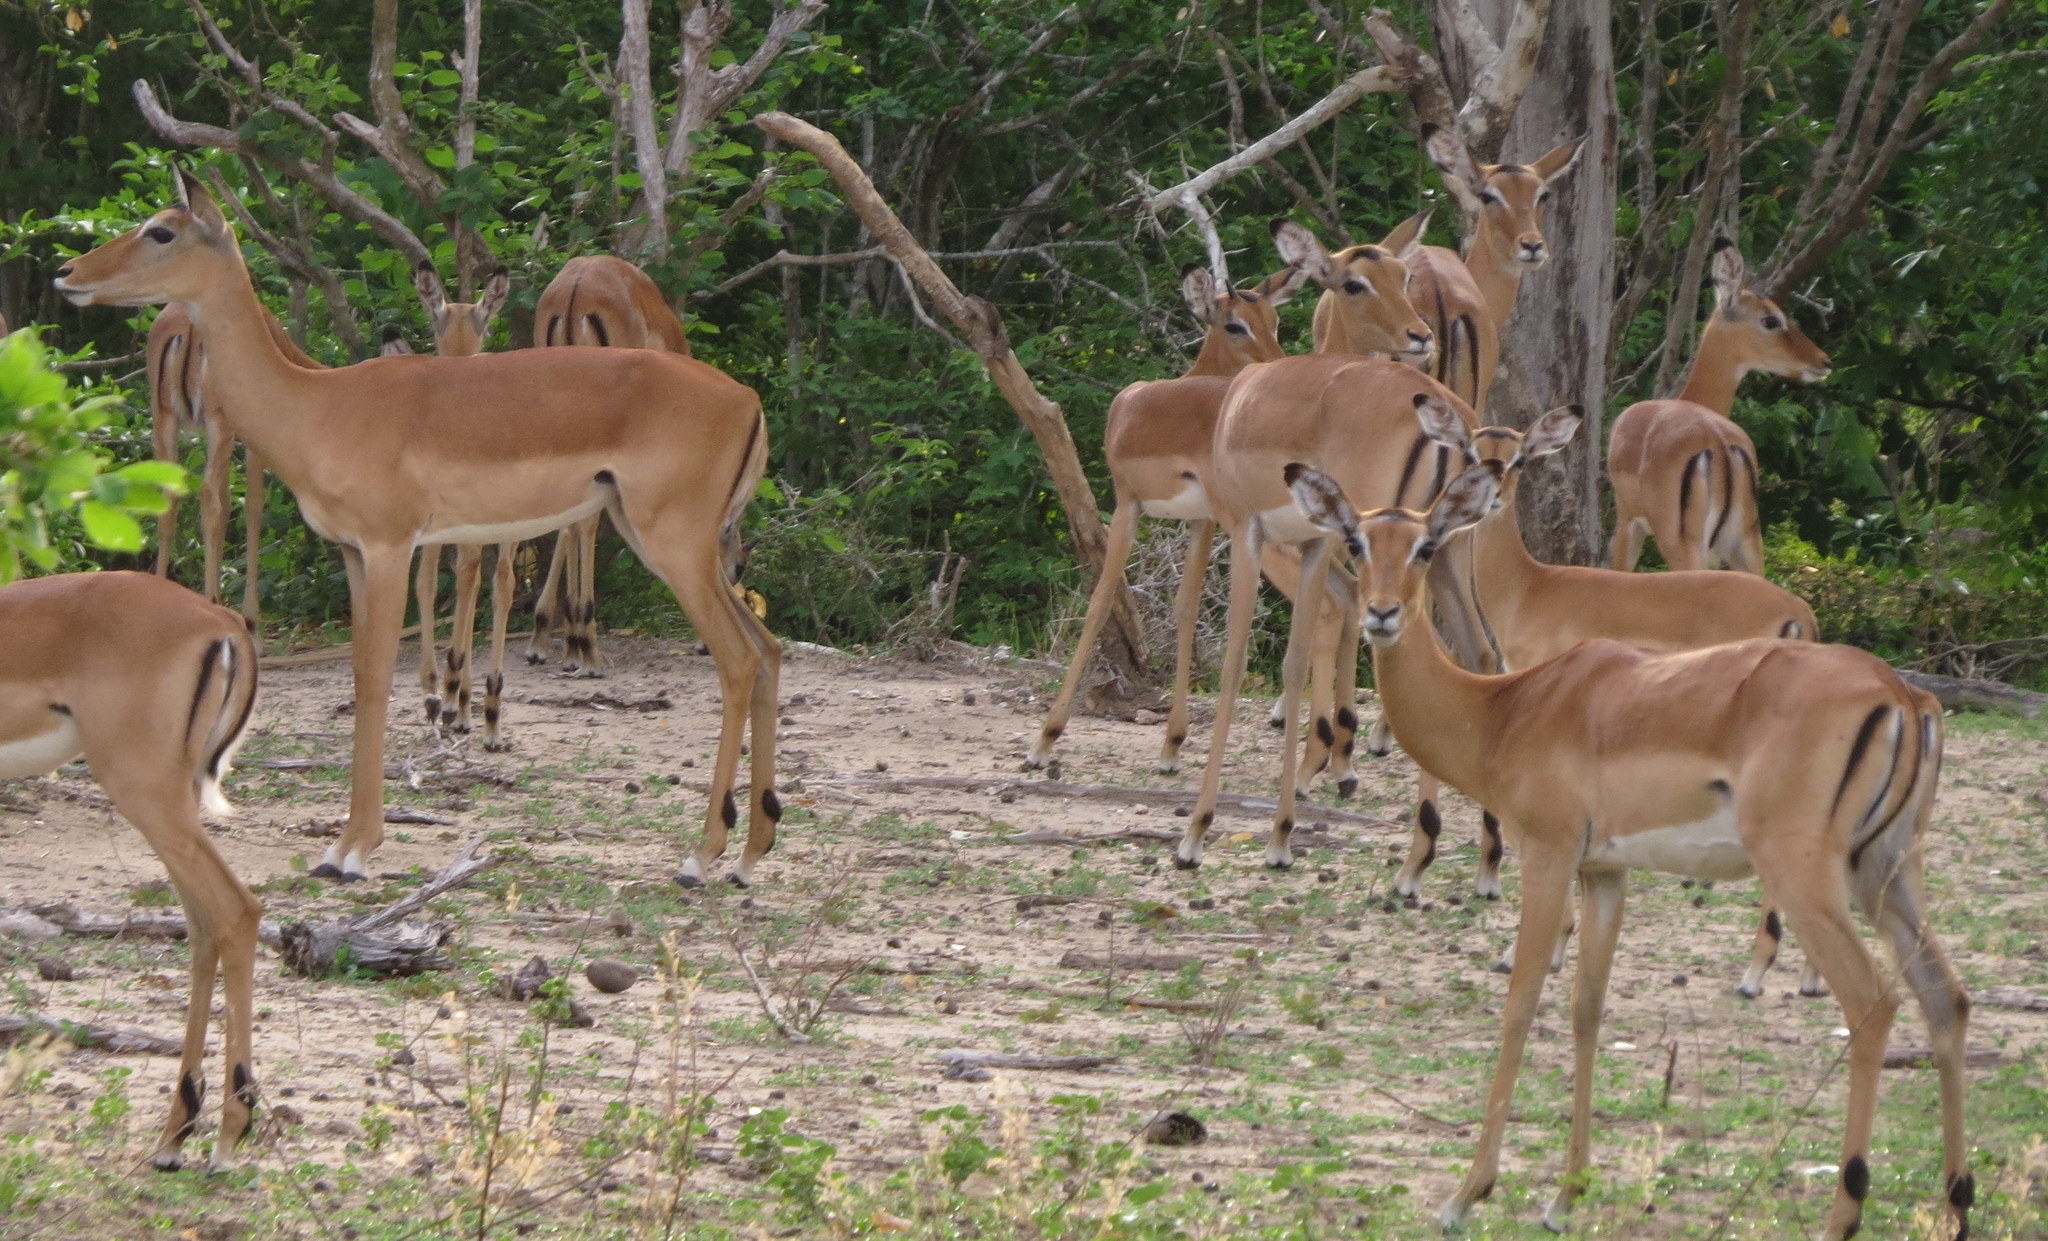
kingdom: Animalia
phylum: Chordata
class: Mammalia
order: Artiodactyla
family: Bovidae
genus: Aepyceros
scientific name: Aepyceros melampus
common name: Impala
